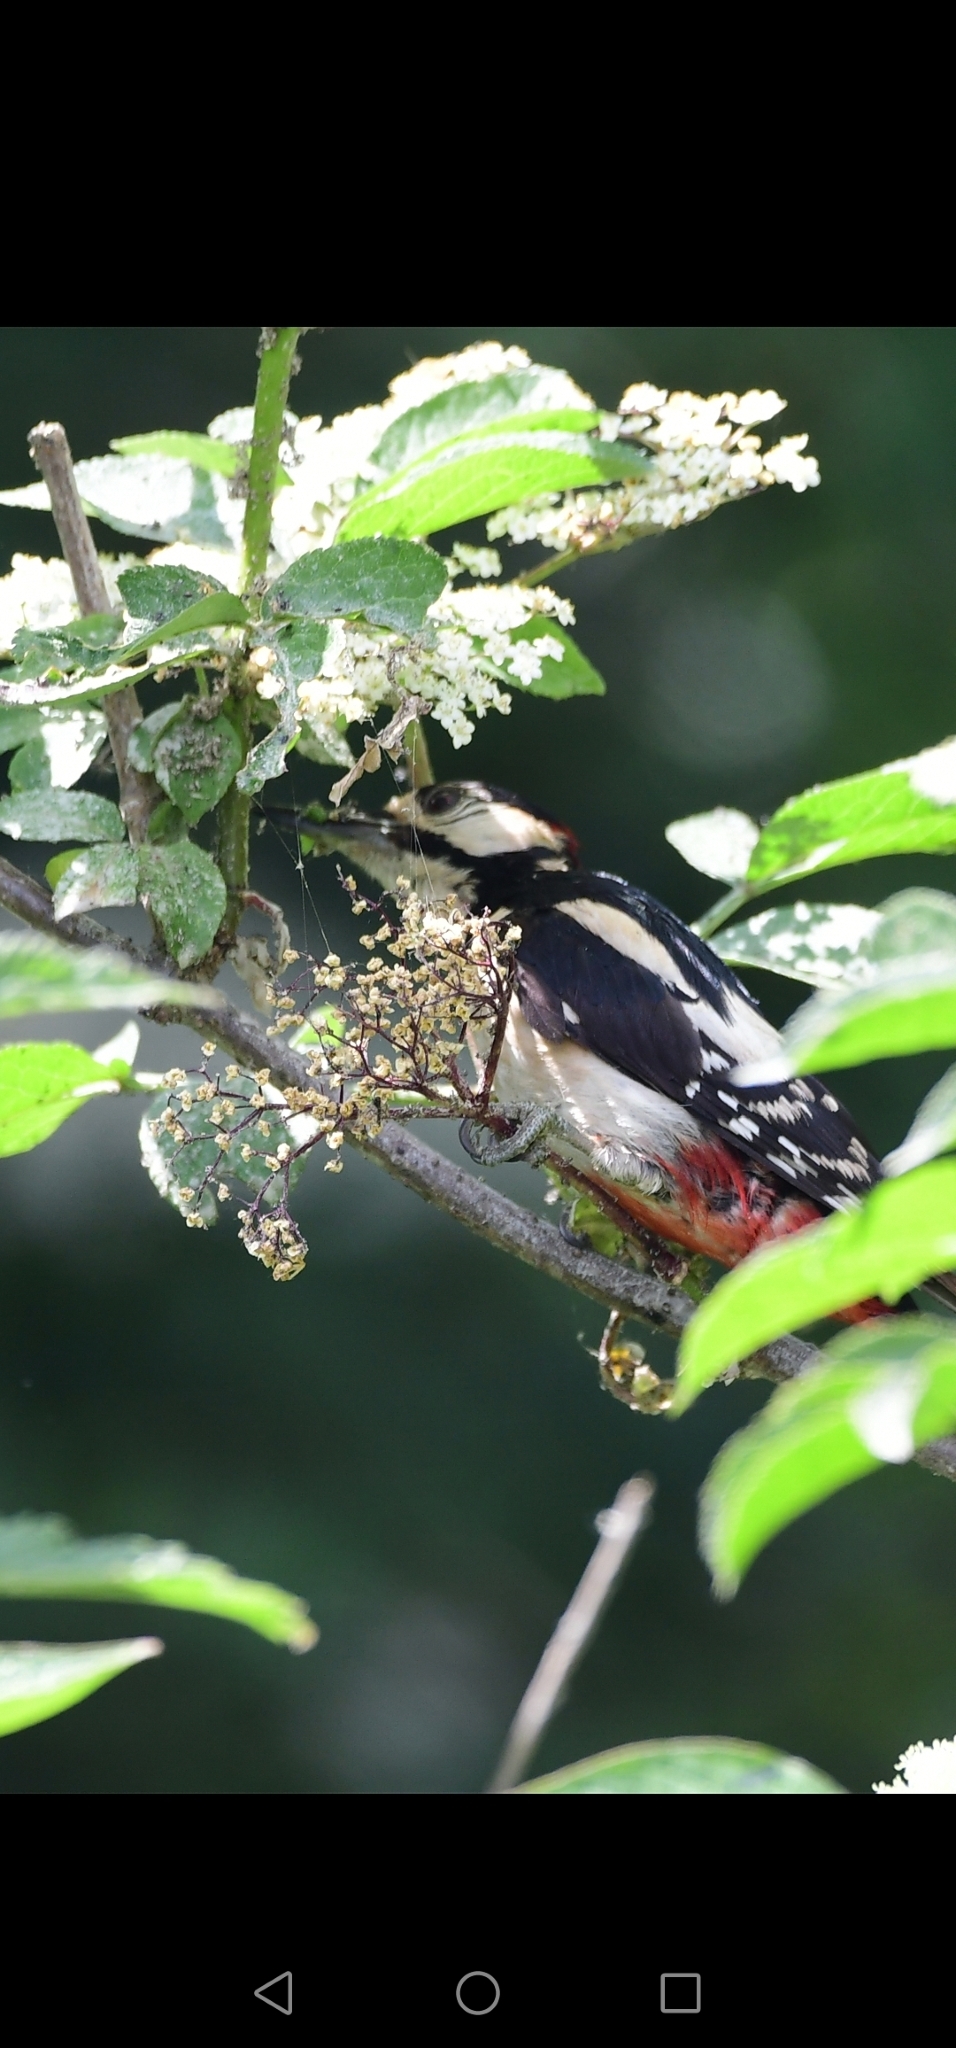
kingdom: Animalia
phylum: Chordata
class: Aves
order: Piciformes
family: Picidae
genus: Dendrocopos
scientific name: Dendrocopos major
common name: Great spotted woodpecker
